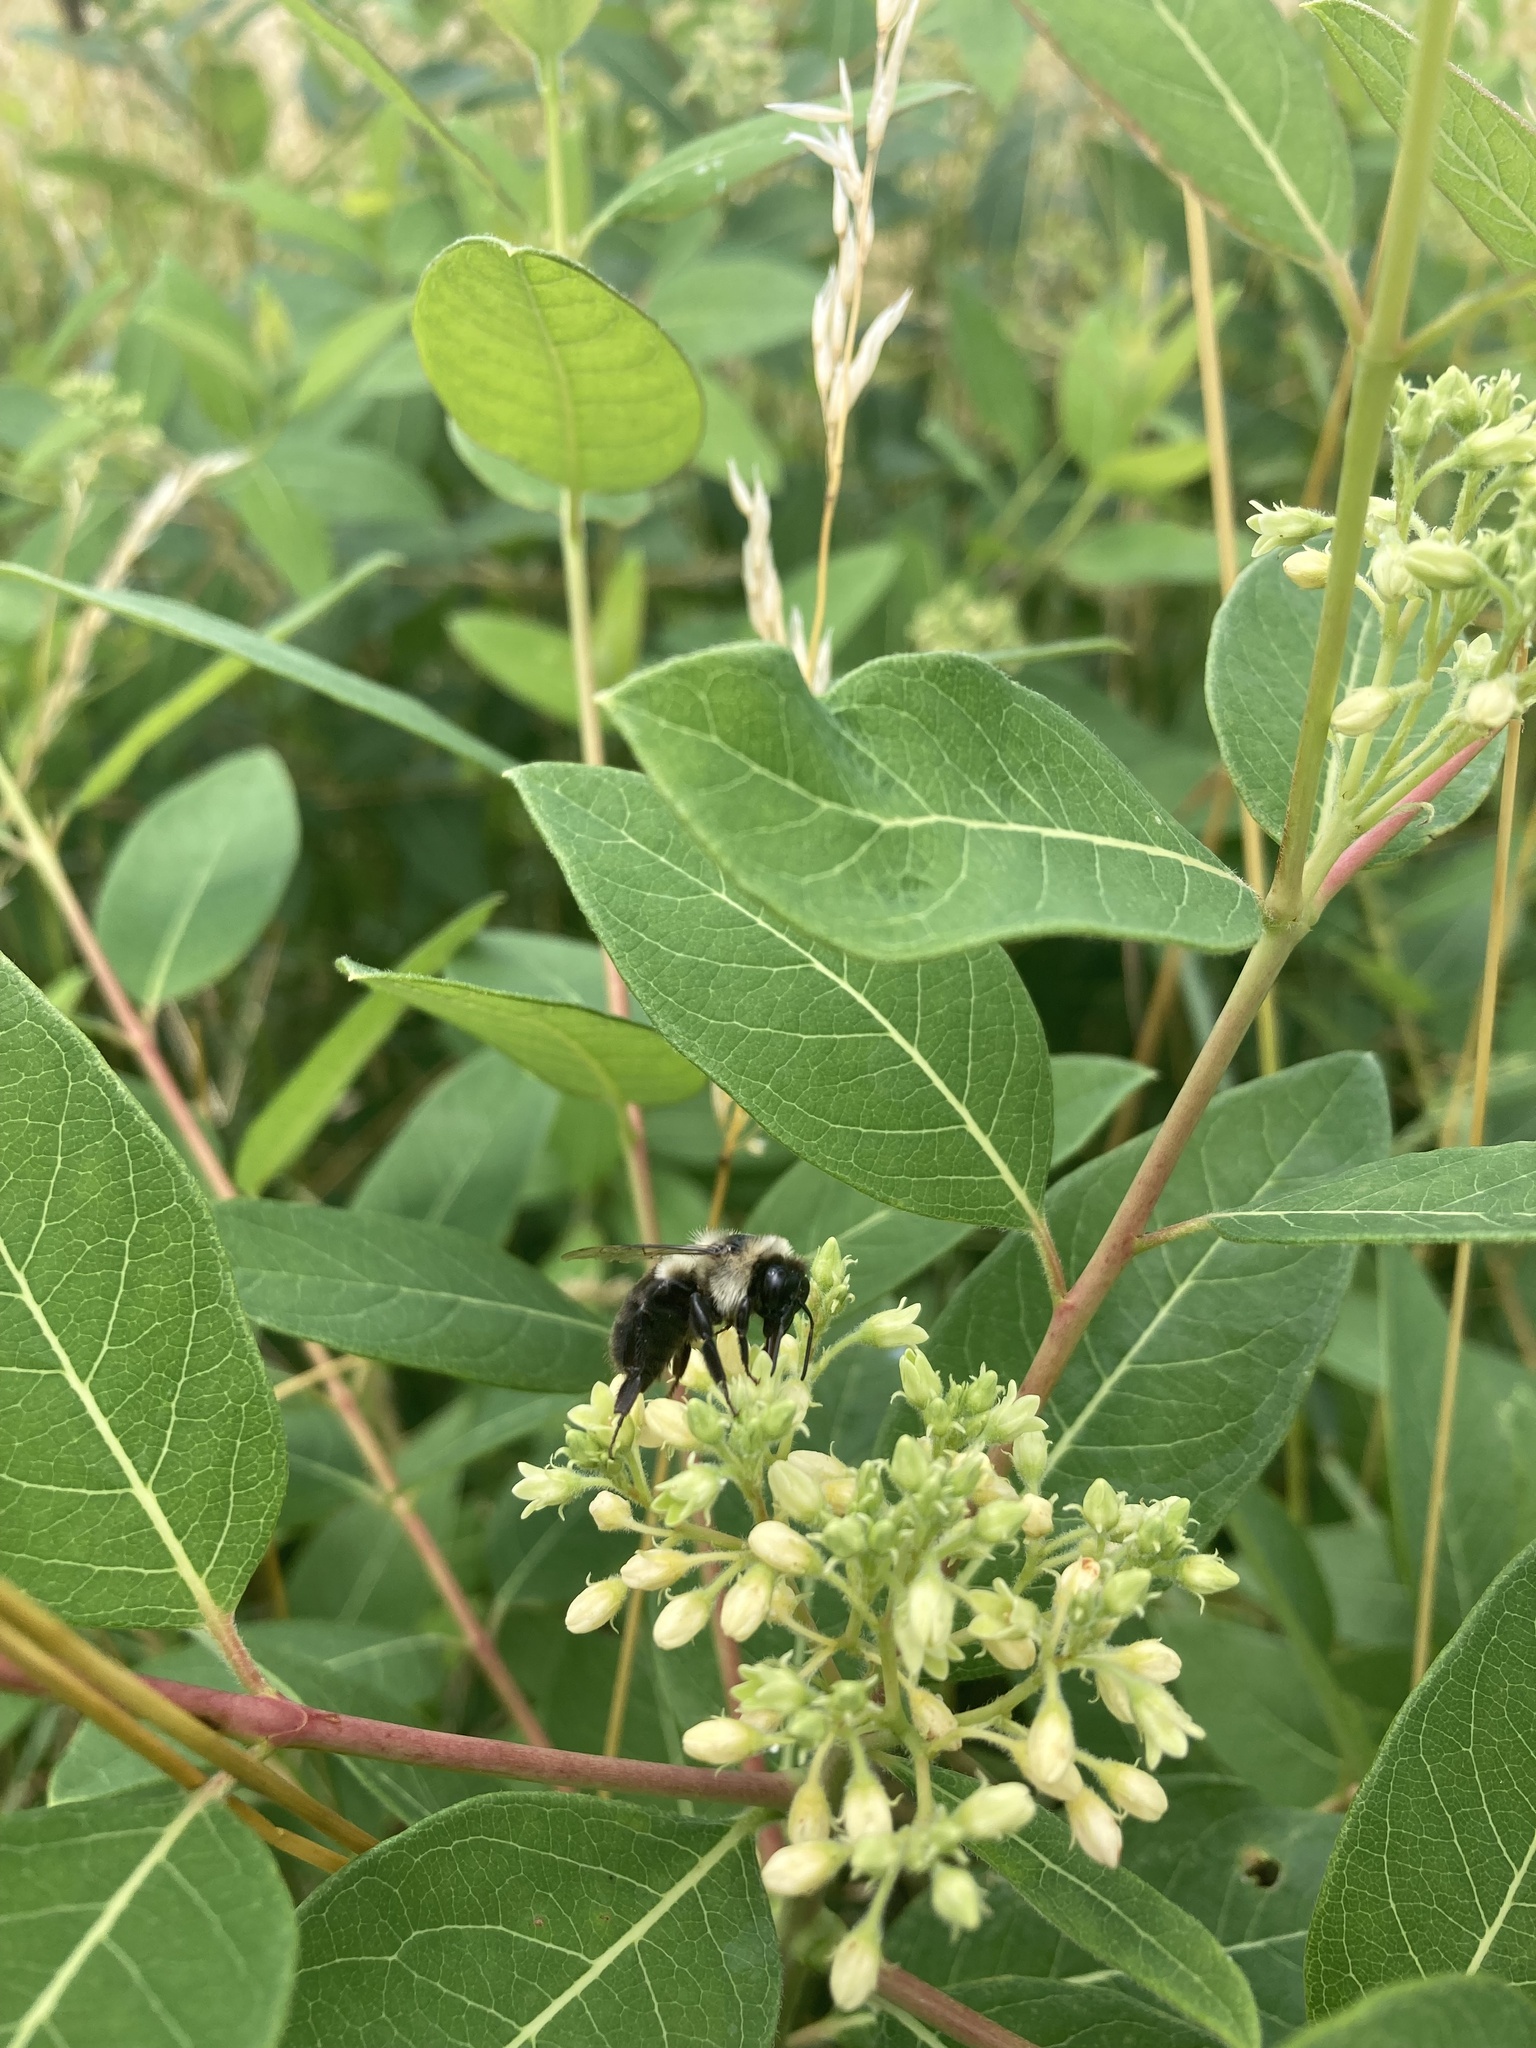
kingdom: Animalia
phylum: Arthropoda
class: Insecta
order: Hymenoptera
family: Apidae
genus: Bombus
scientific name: Bombus impatiens
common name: Common eastern bumble bee
